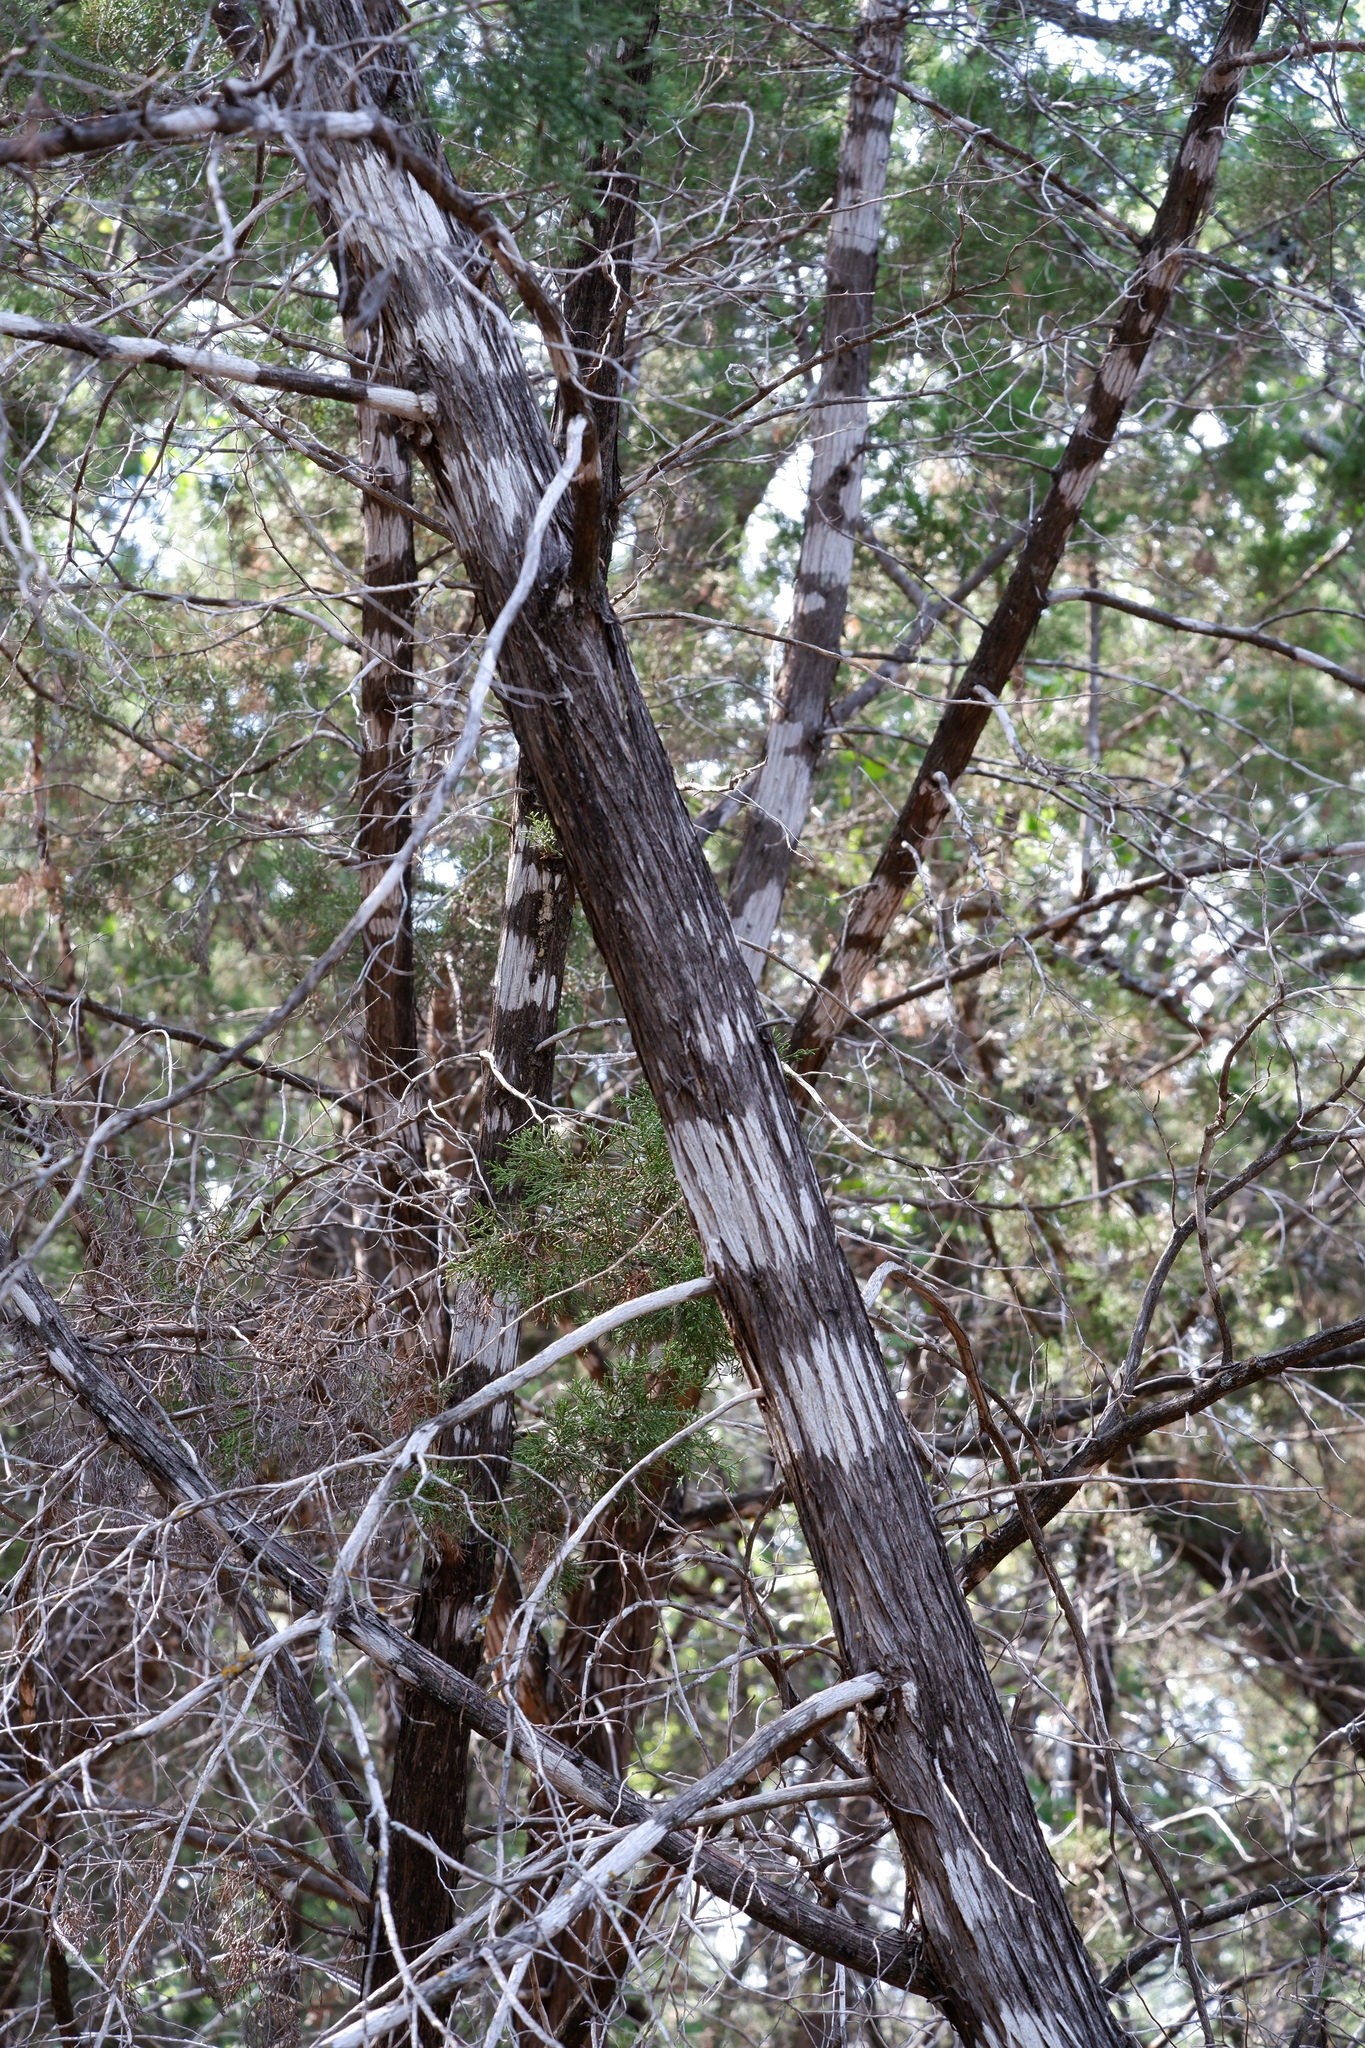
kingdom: Fungi
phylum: Ascomycota
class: Lecanoromycetes
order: Ostropales
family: Stictidaceae
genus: Robergea
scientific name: Robergea
